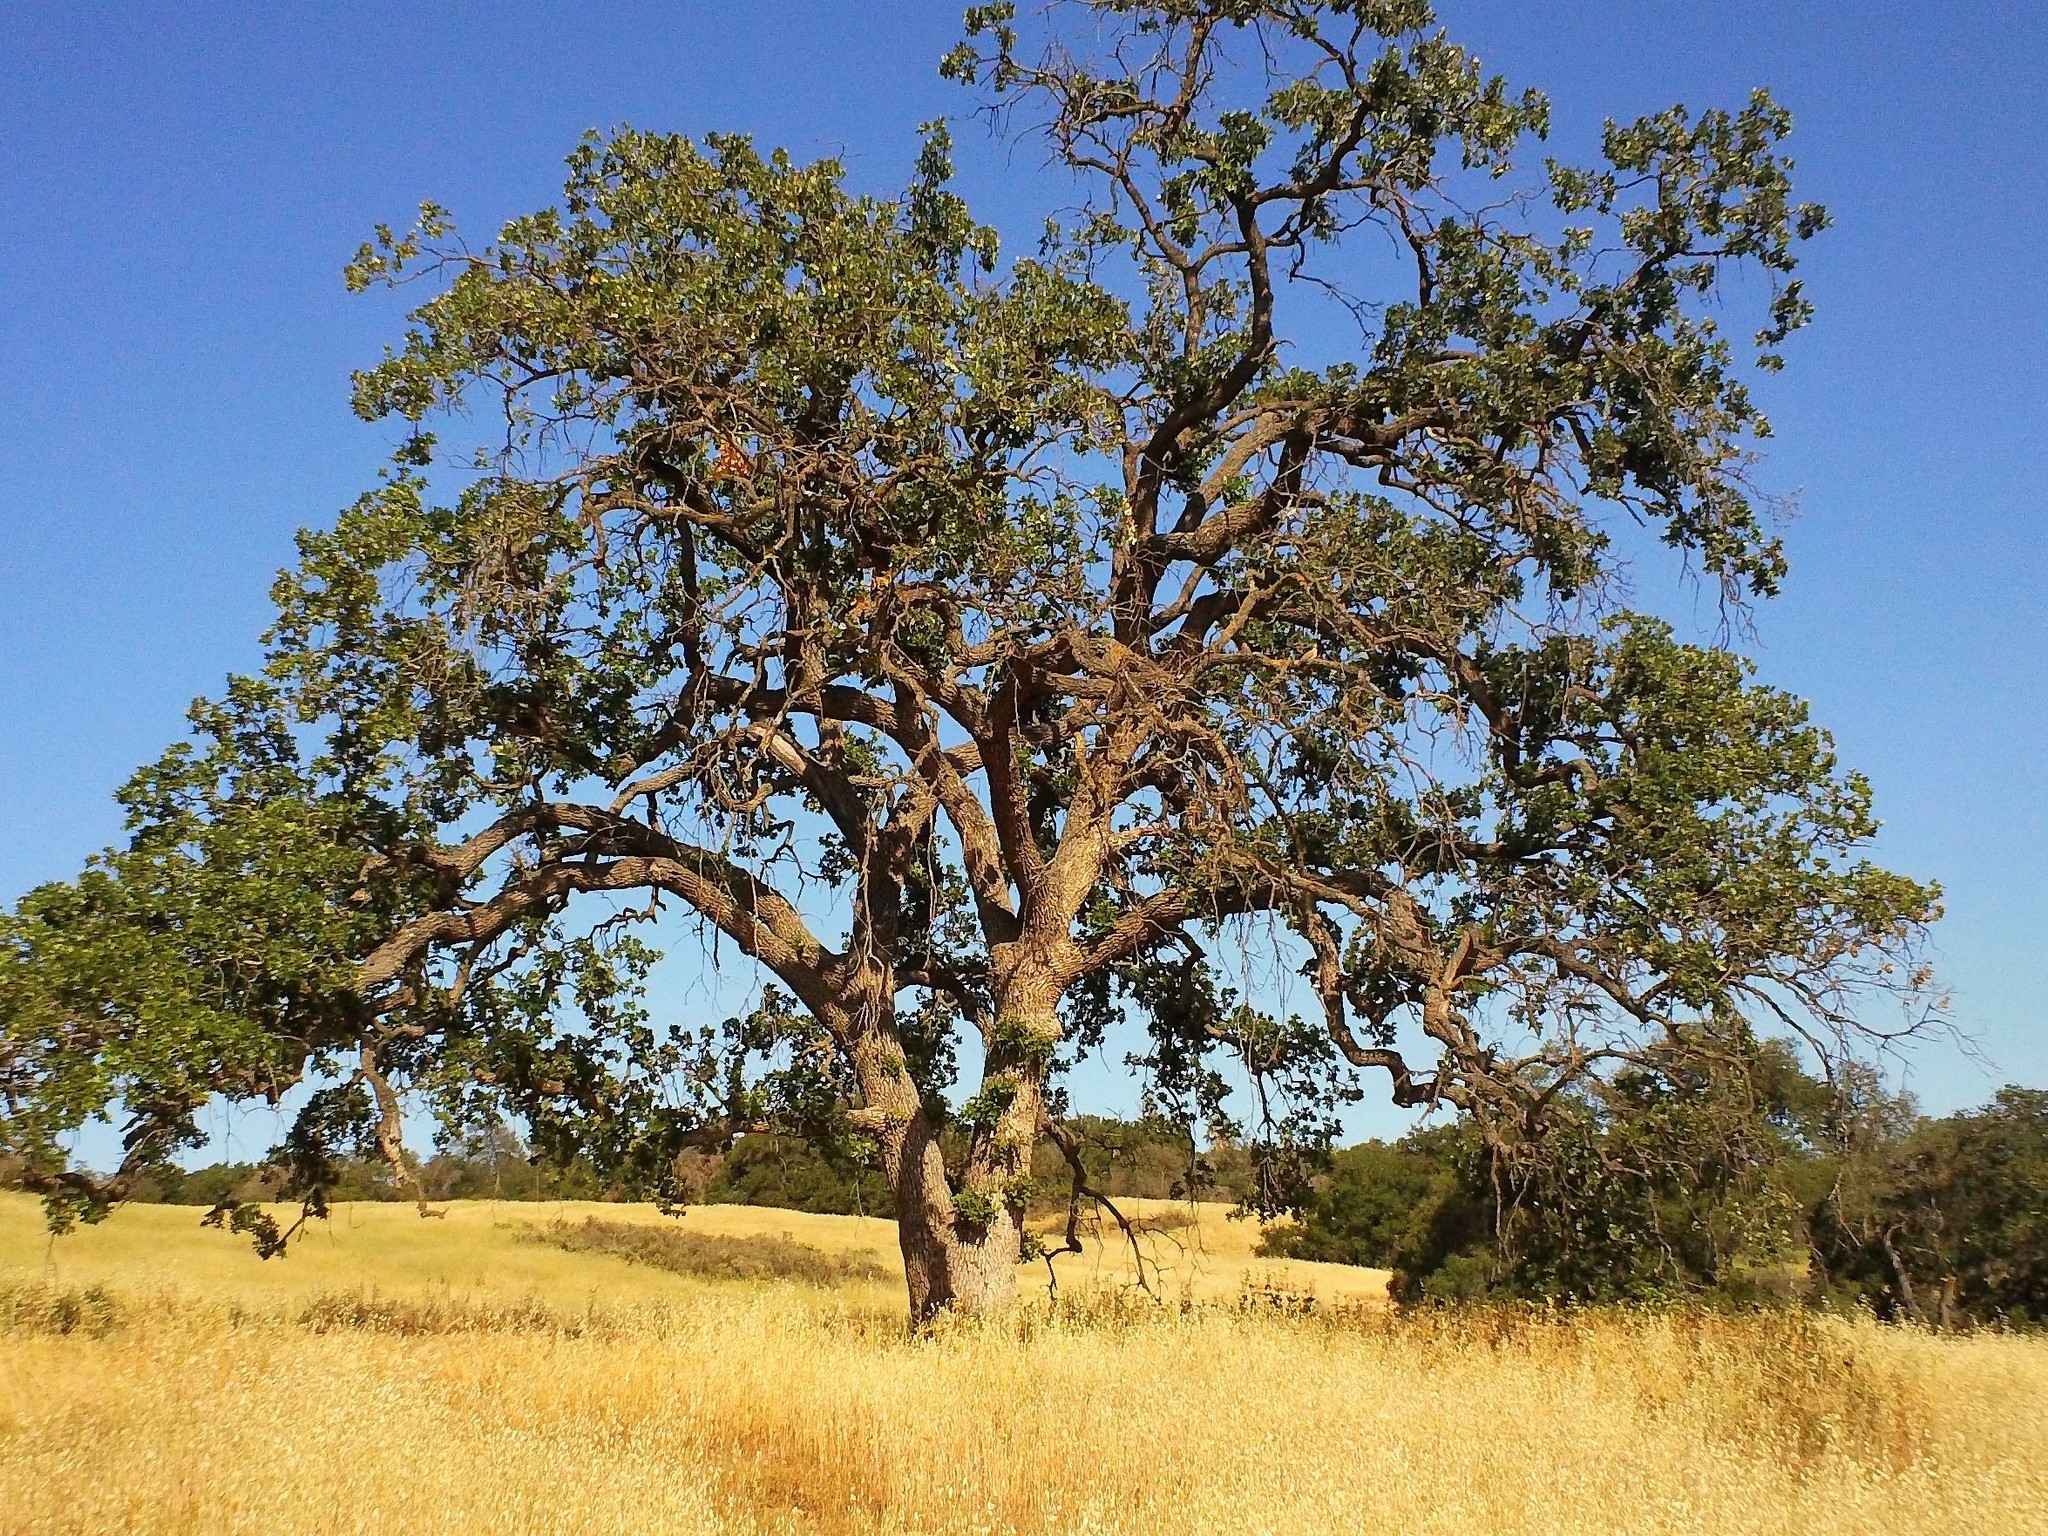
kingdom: Plantae
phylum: Tracheophyta
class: Magnoliopsida
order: Fagales
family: Fagaceae
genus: Quercus
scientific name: Quercus lobata
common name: Valley oak
